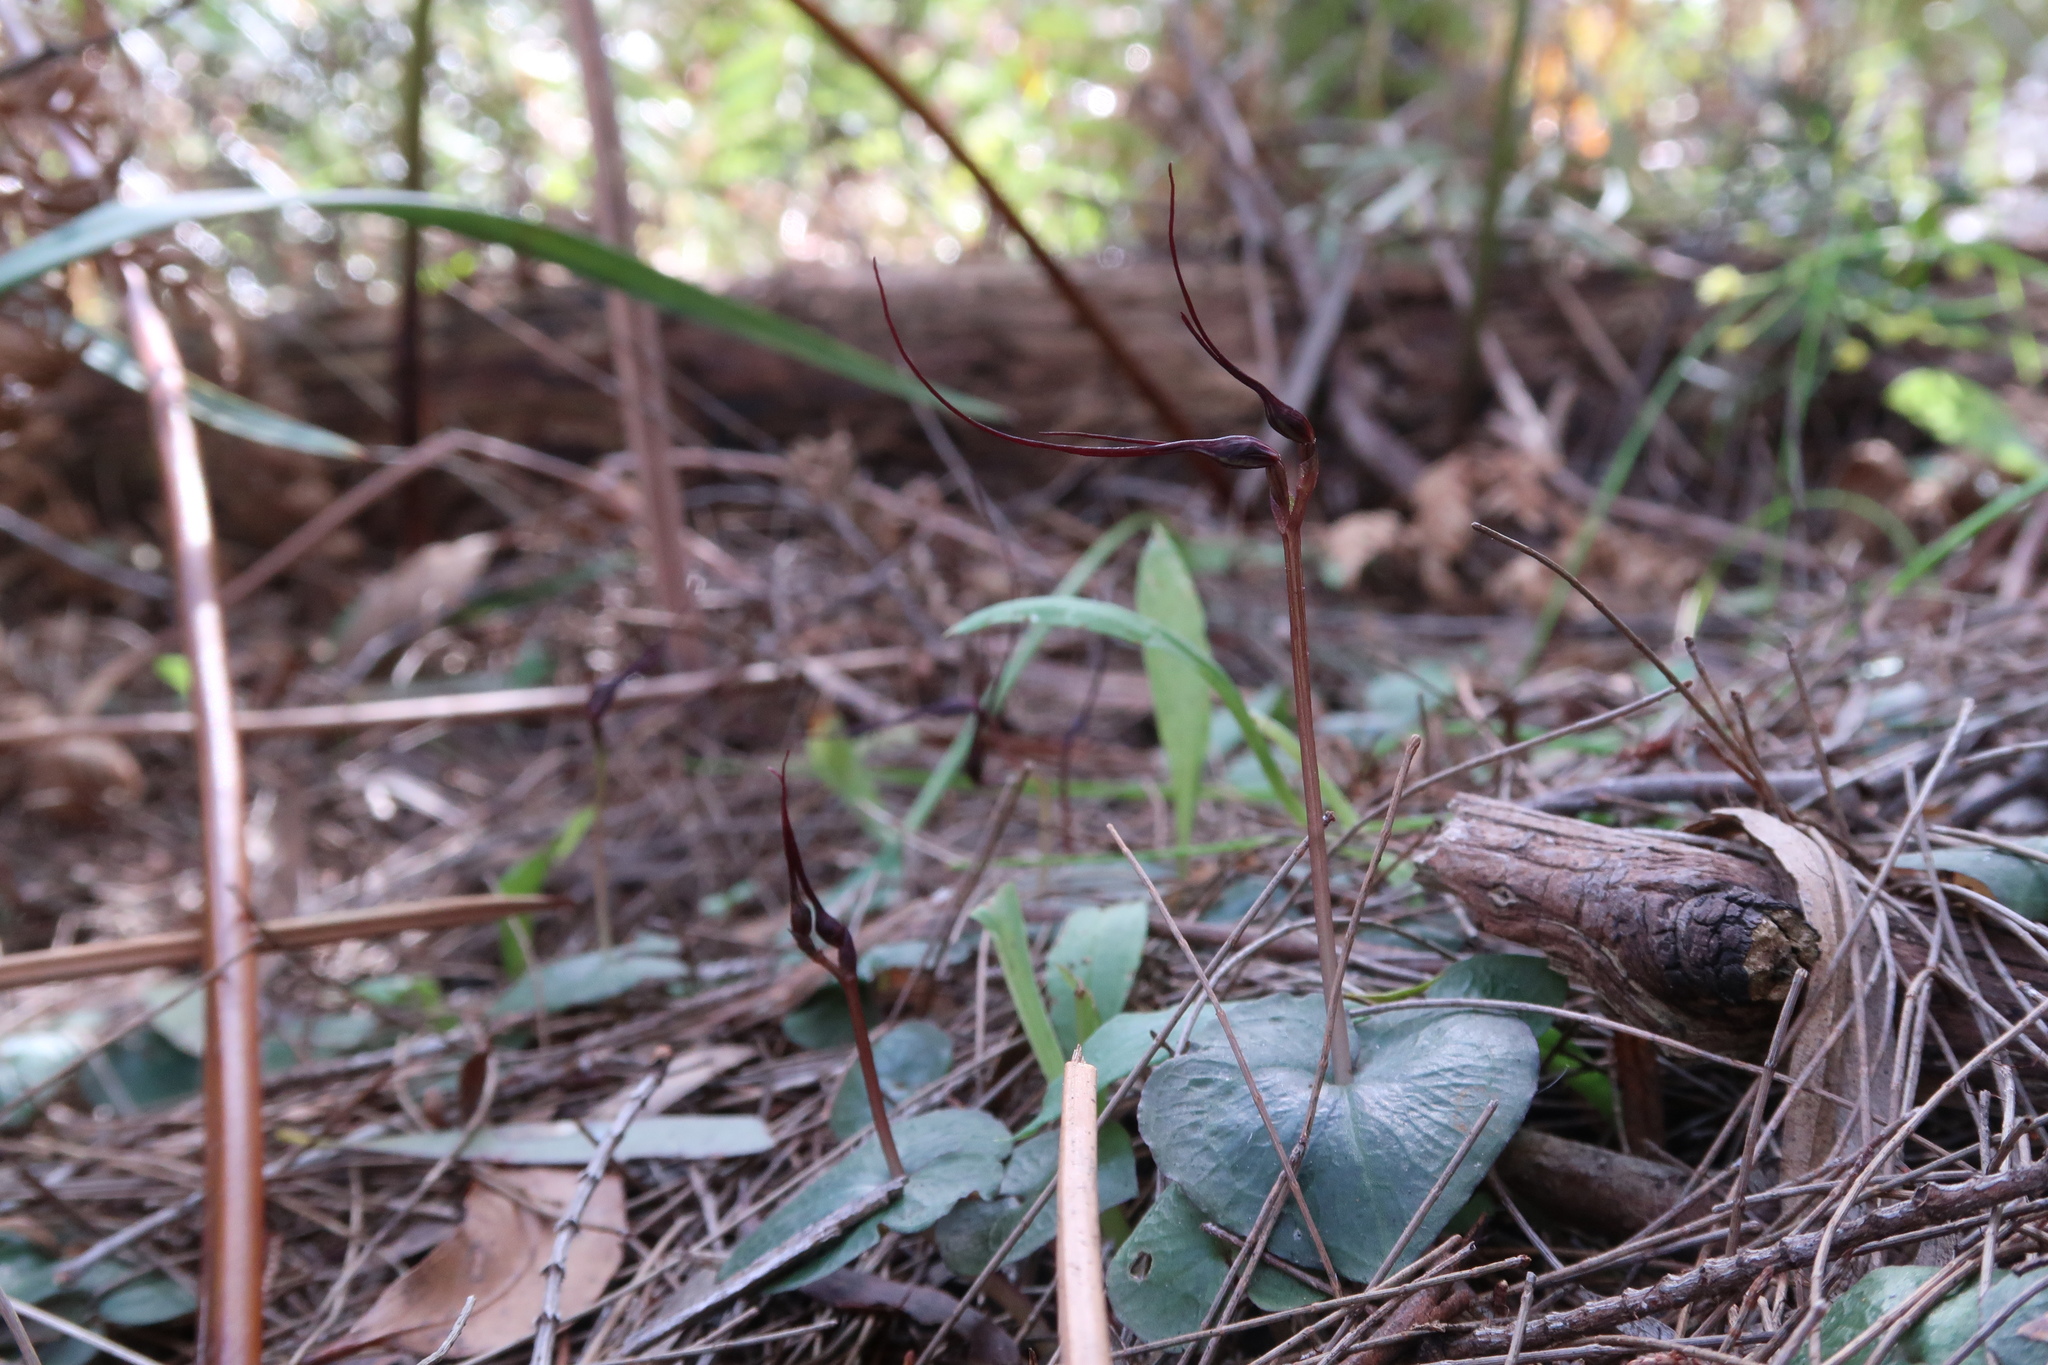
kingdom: Plantae
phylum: Tracheophyta
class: Liliopsida
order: Asparagales
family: Orchidaceae
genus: Acianthus
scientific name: Acianthus caudatus
